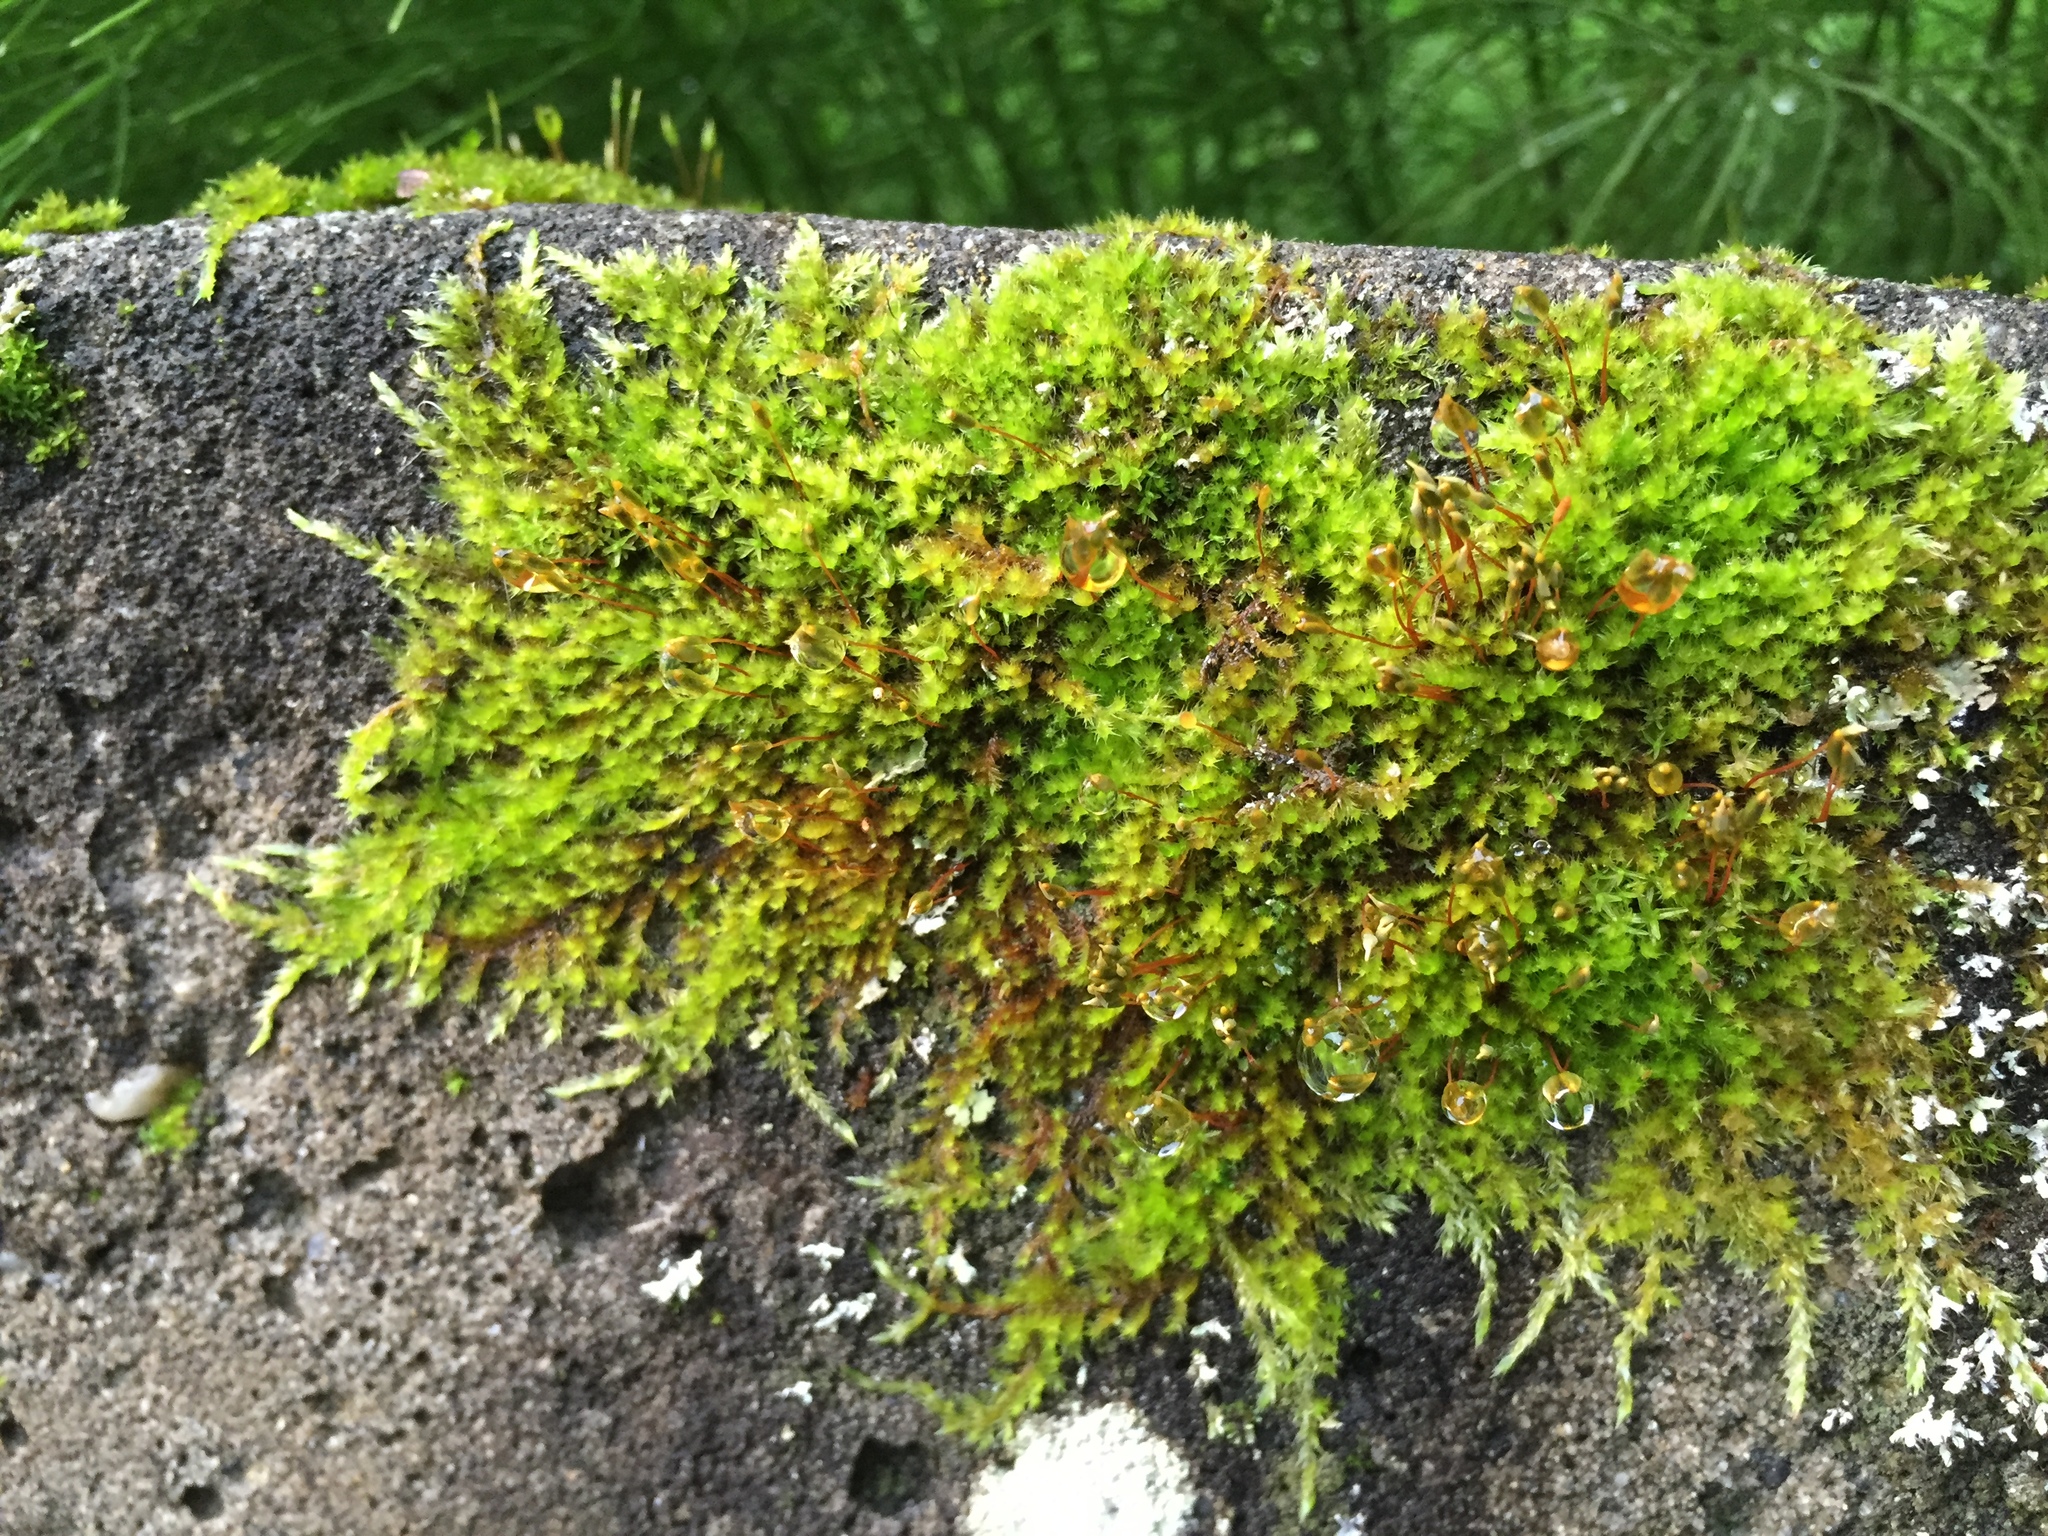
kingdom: Plantae
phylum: Bryophyta
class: Bryopsida
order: Hypnales
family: Brachytheciaceae
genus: Homalothecium
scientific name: Homalothecium sericeum
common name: Silky wall feather-moss
